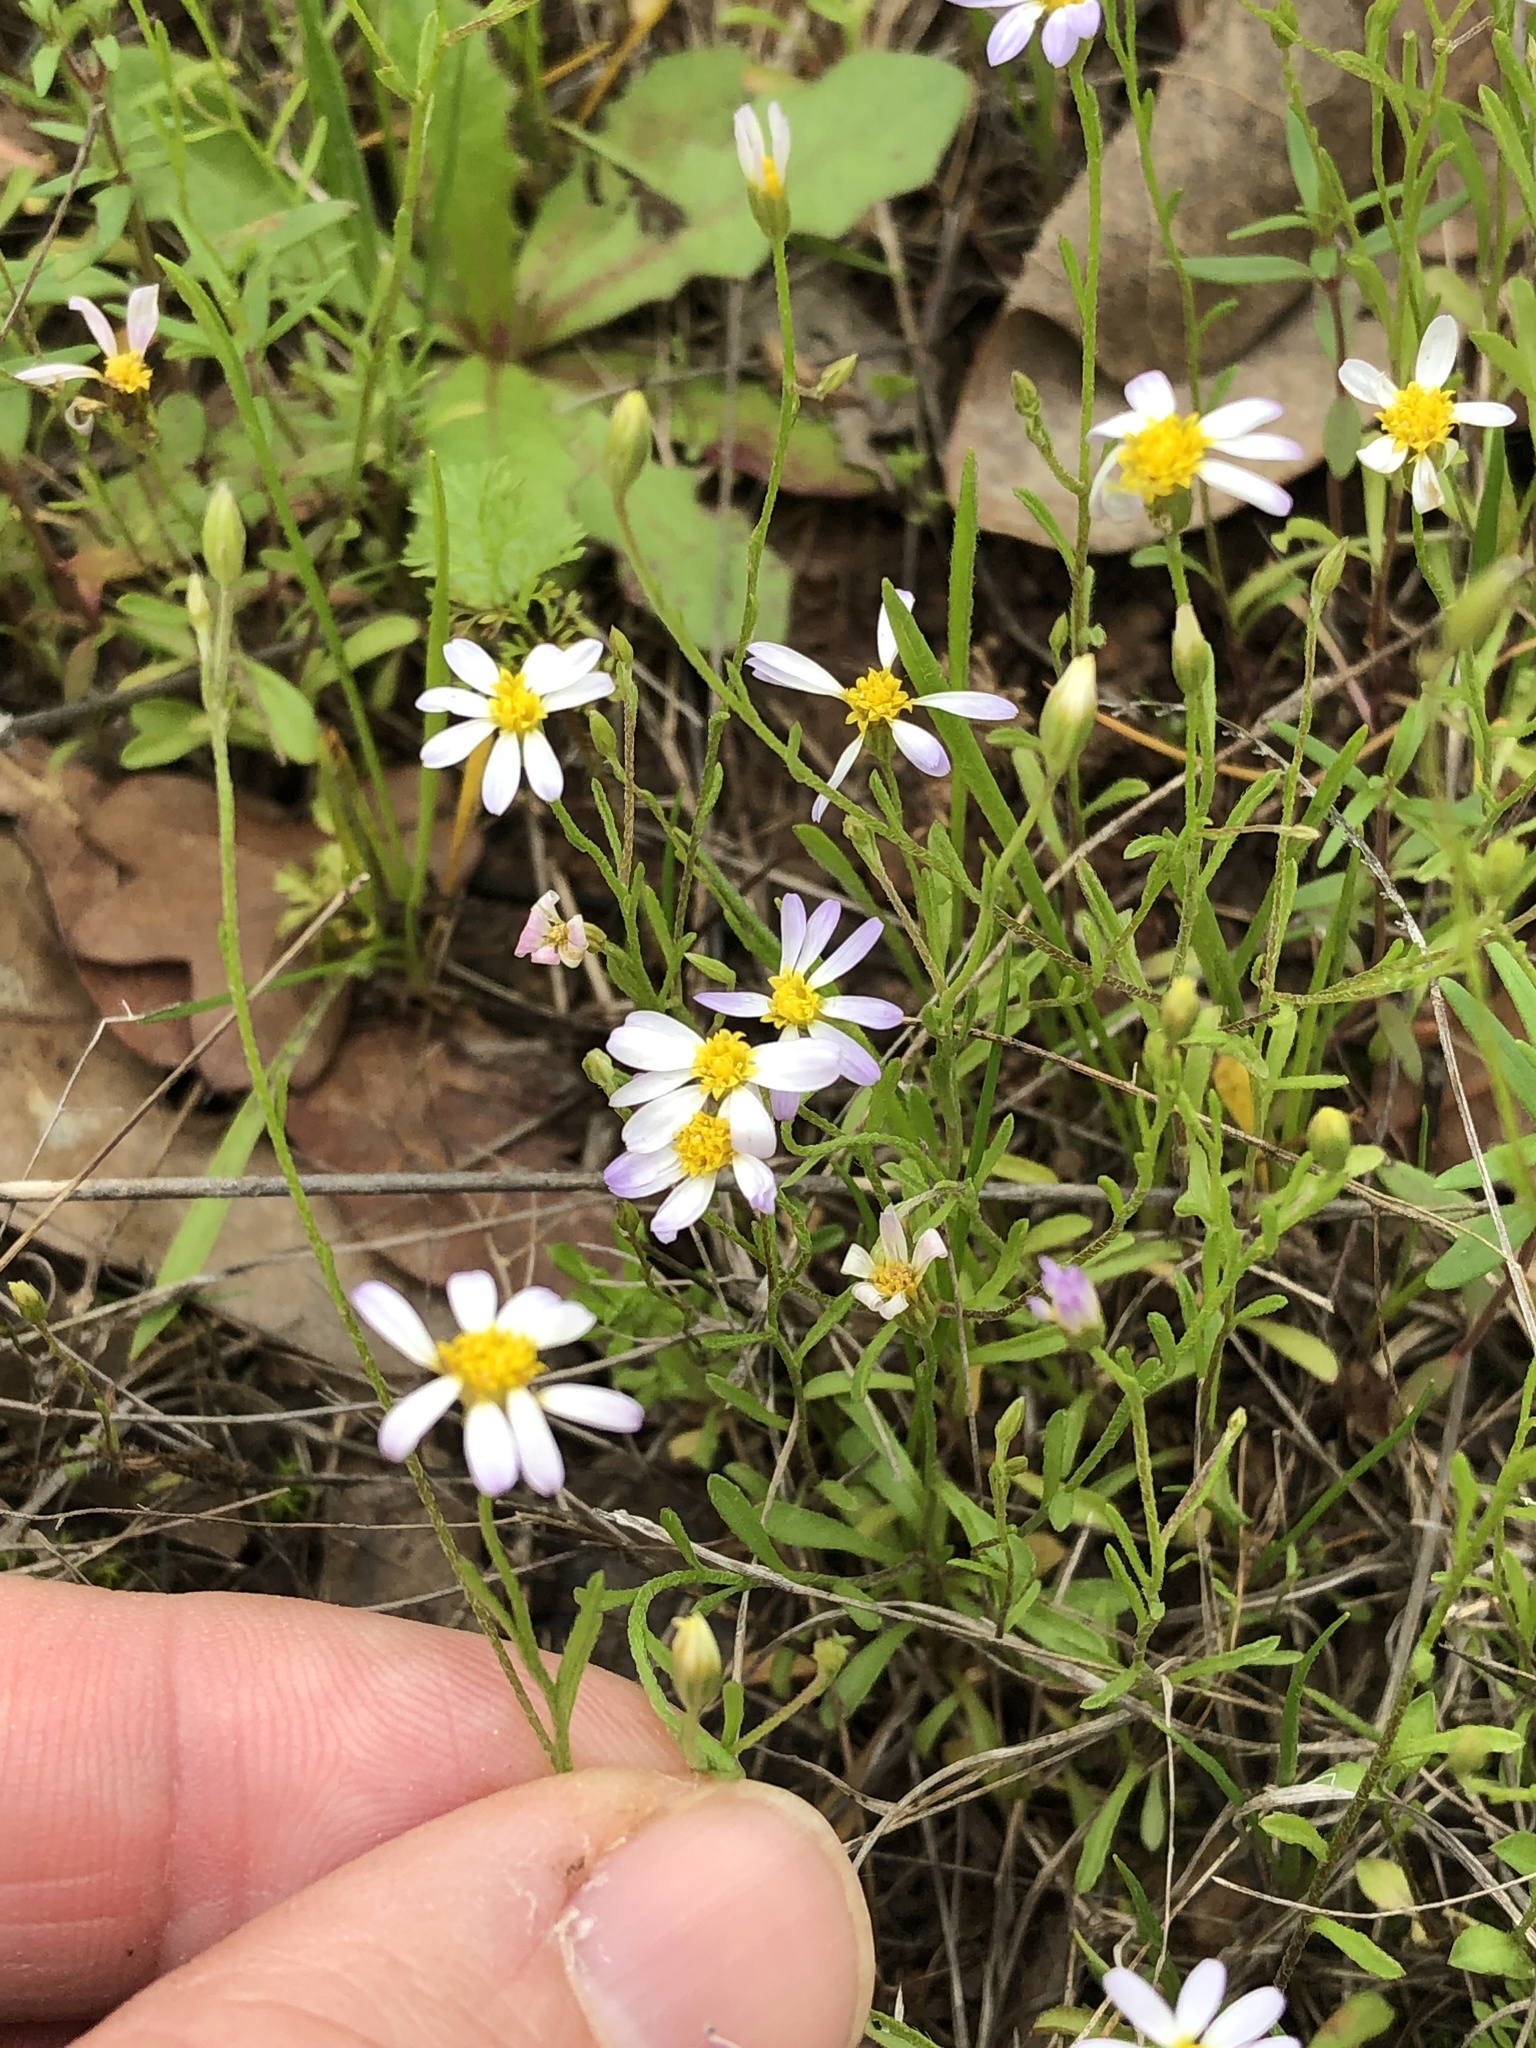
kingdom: Plantae
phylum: Tracheophyta
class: Magnoliopsida
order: Asterales
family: Asteraceae
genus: Chaetopappa
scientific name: Chaetopappa asteroides
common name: Tiny lazy daisy
